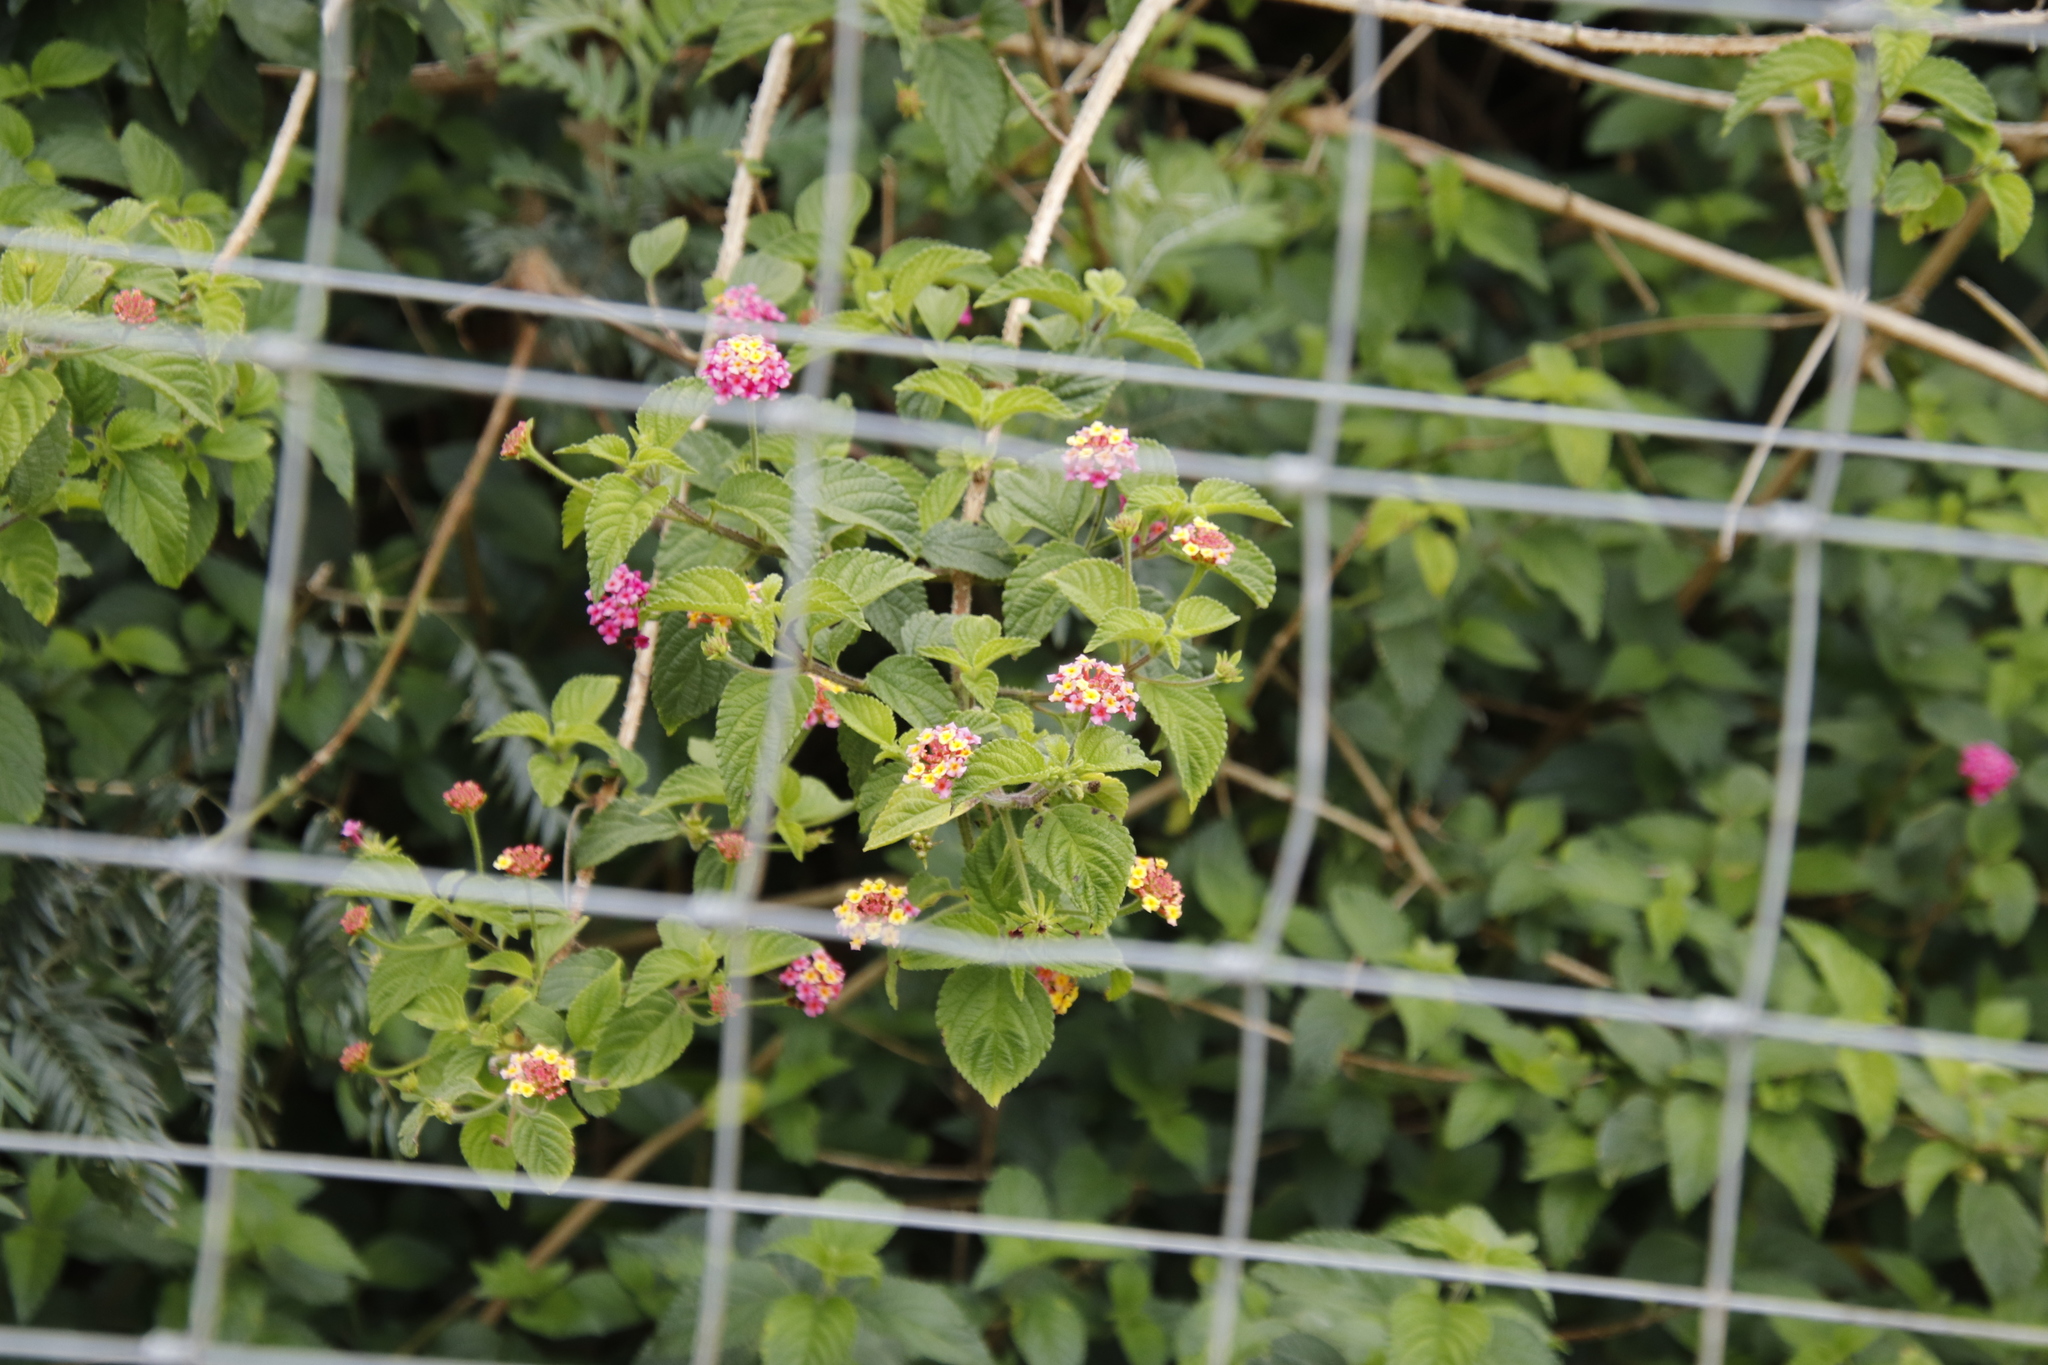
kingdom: Plantae
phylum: Tracheophyta
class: Magnoliopsida
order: Lamiales
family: Verbenaceae
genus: Lantana
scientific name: Lantana camara
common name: Lantana
